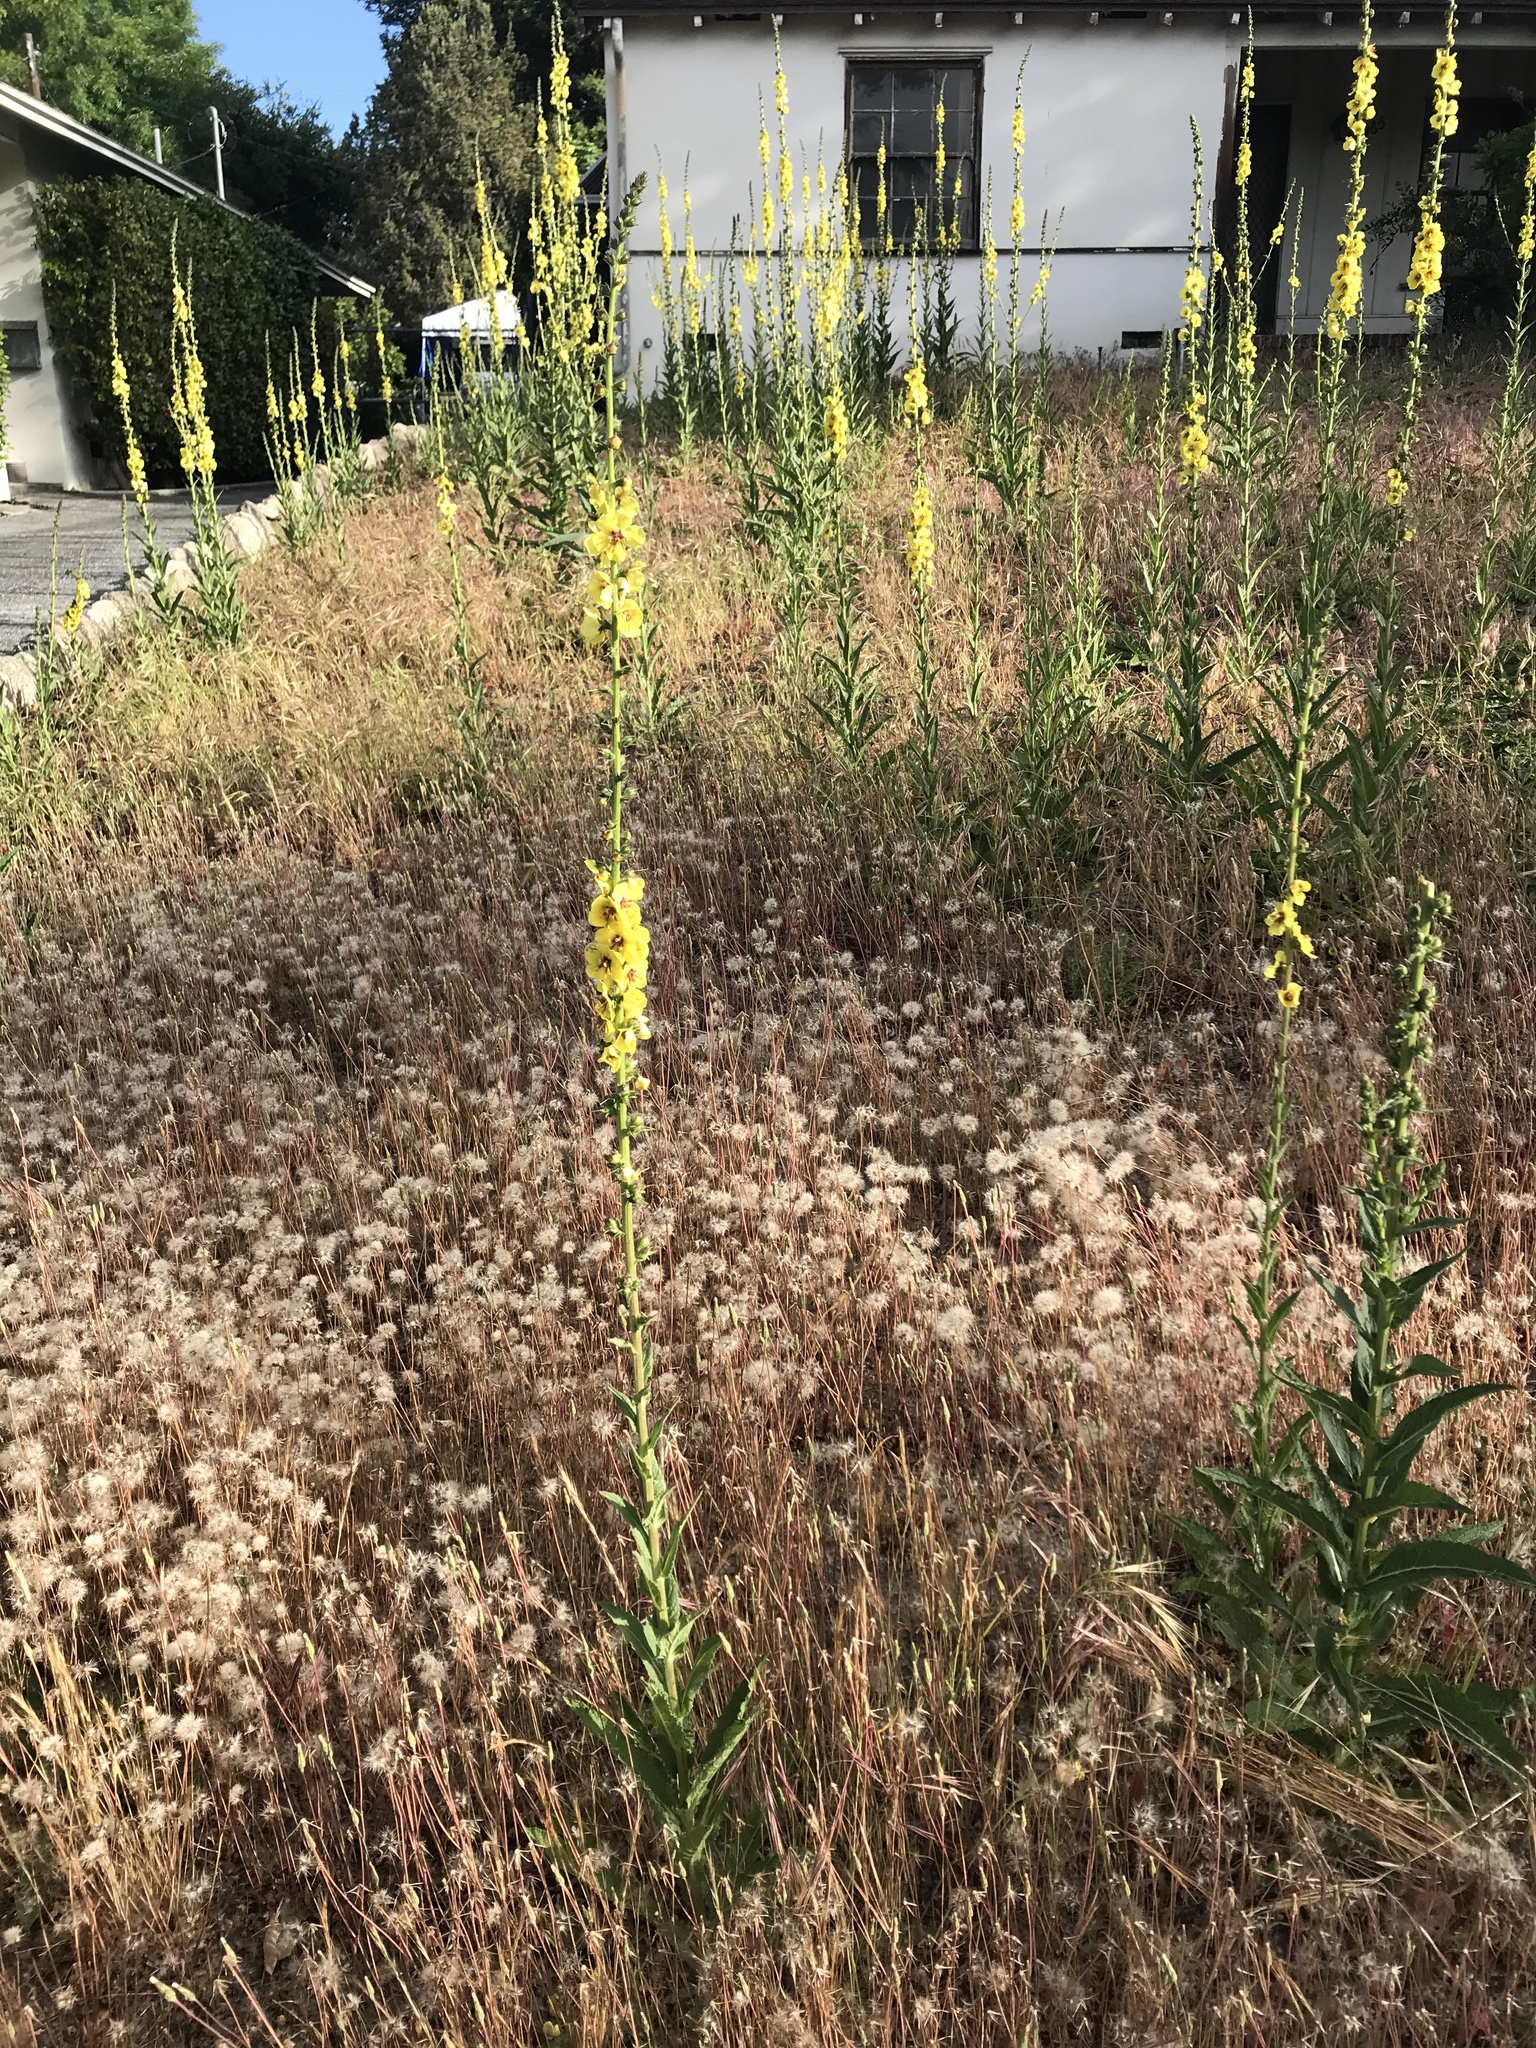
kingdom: Plantae
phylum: Tracheophyta
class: Magnoliopsida
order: Lamiales
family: Scrophulariaceae
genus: Verbascum
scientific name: Verbascum virgatum
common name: Twiggy mullein
